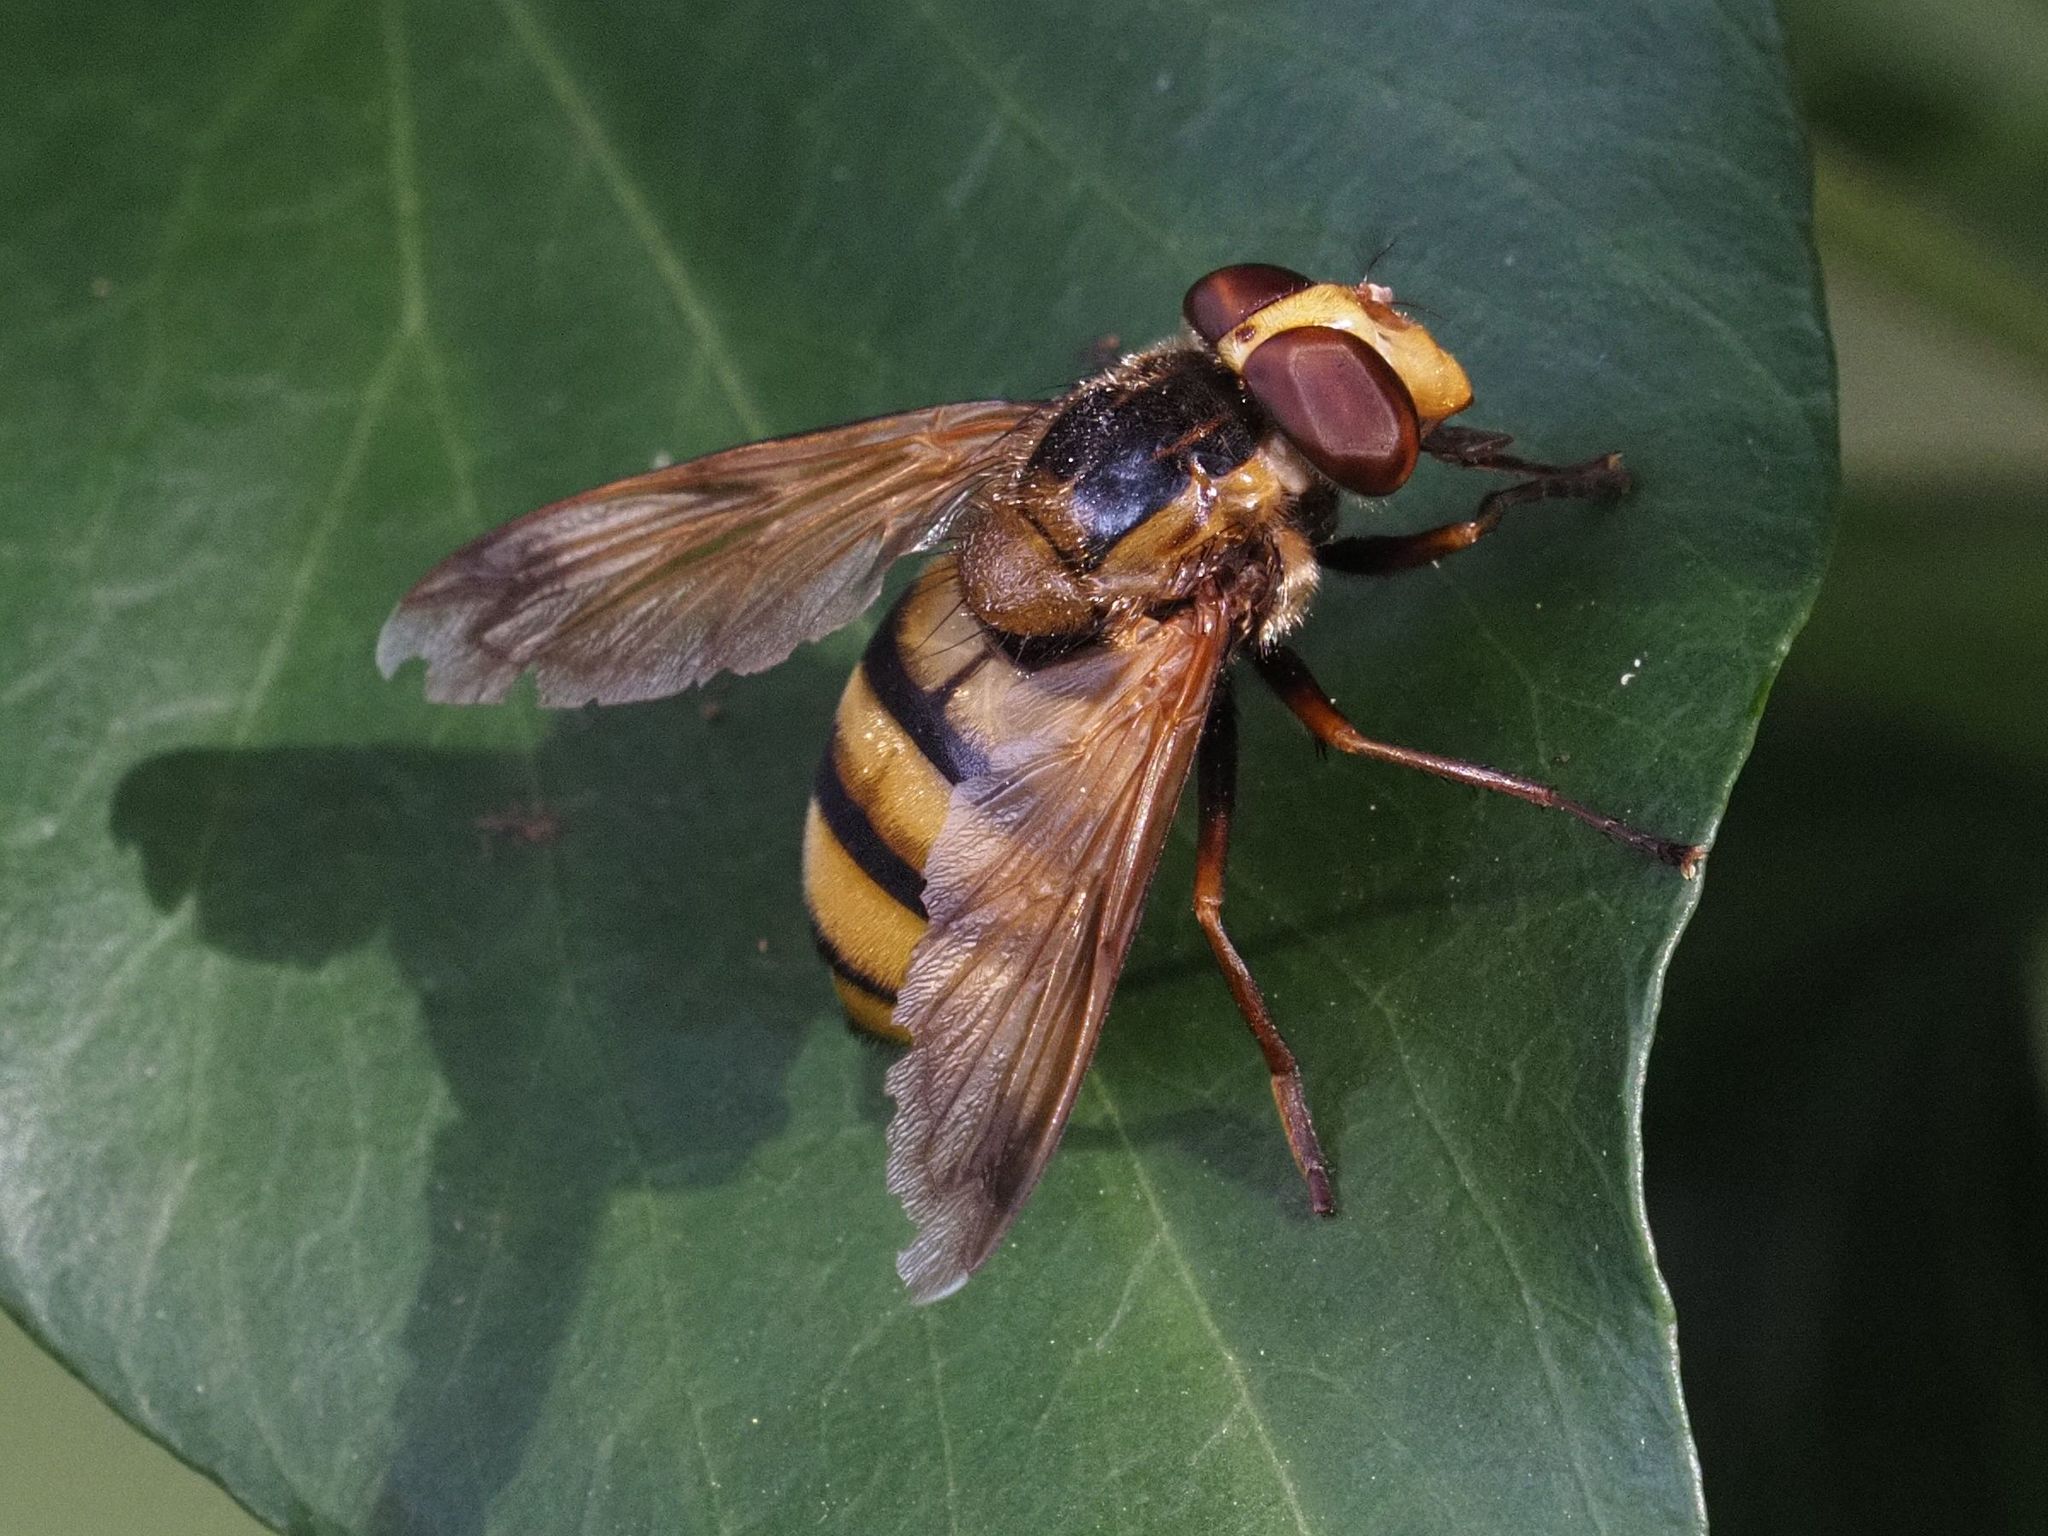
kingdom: Animalia
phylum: Arthropoda
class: Insecta
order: Diptera
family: Syrphidae
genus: Volucella
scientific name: Volucella inanis
